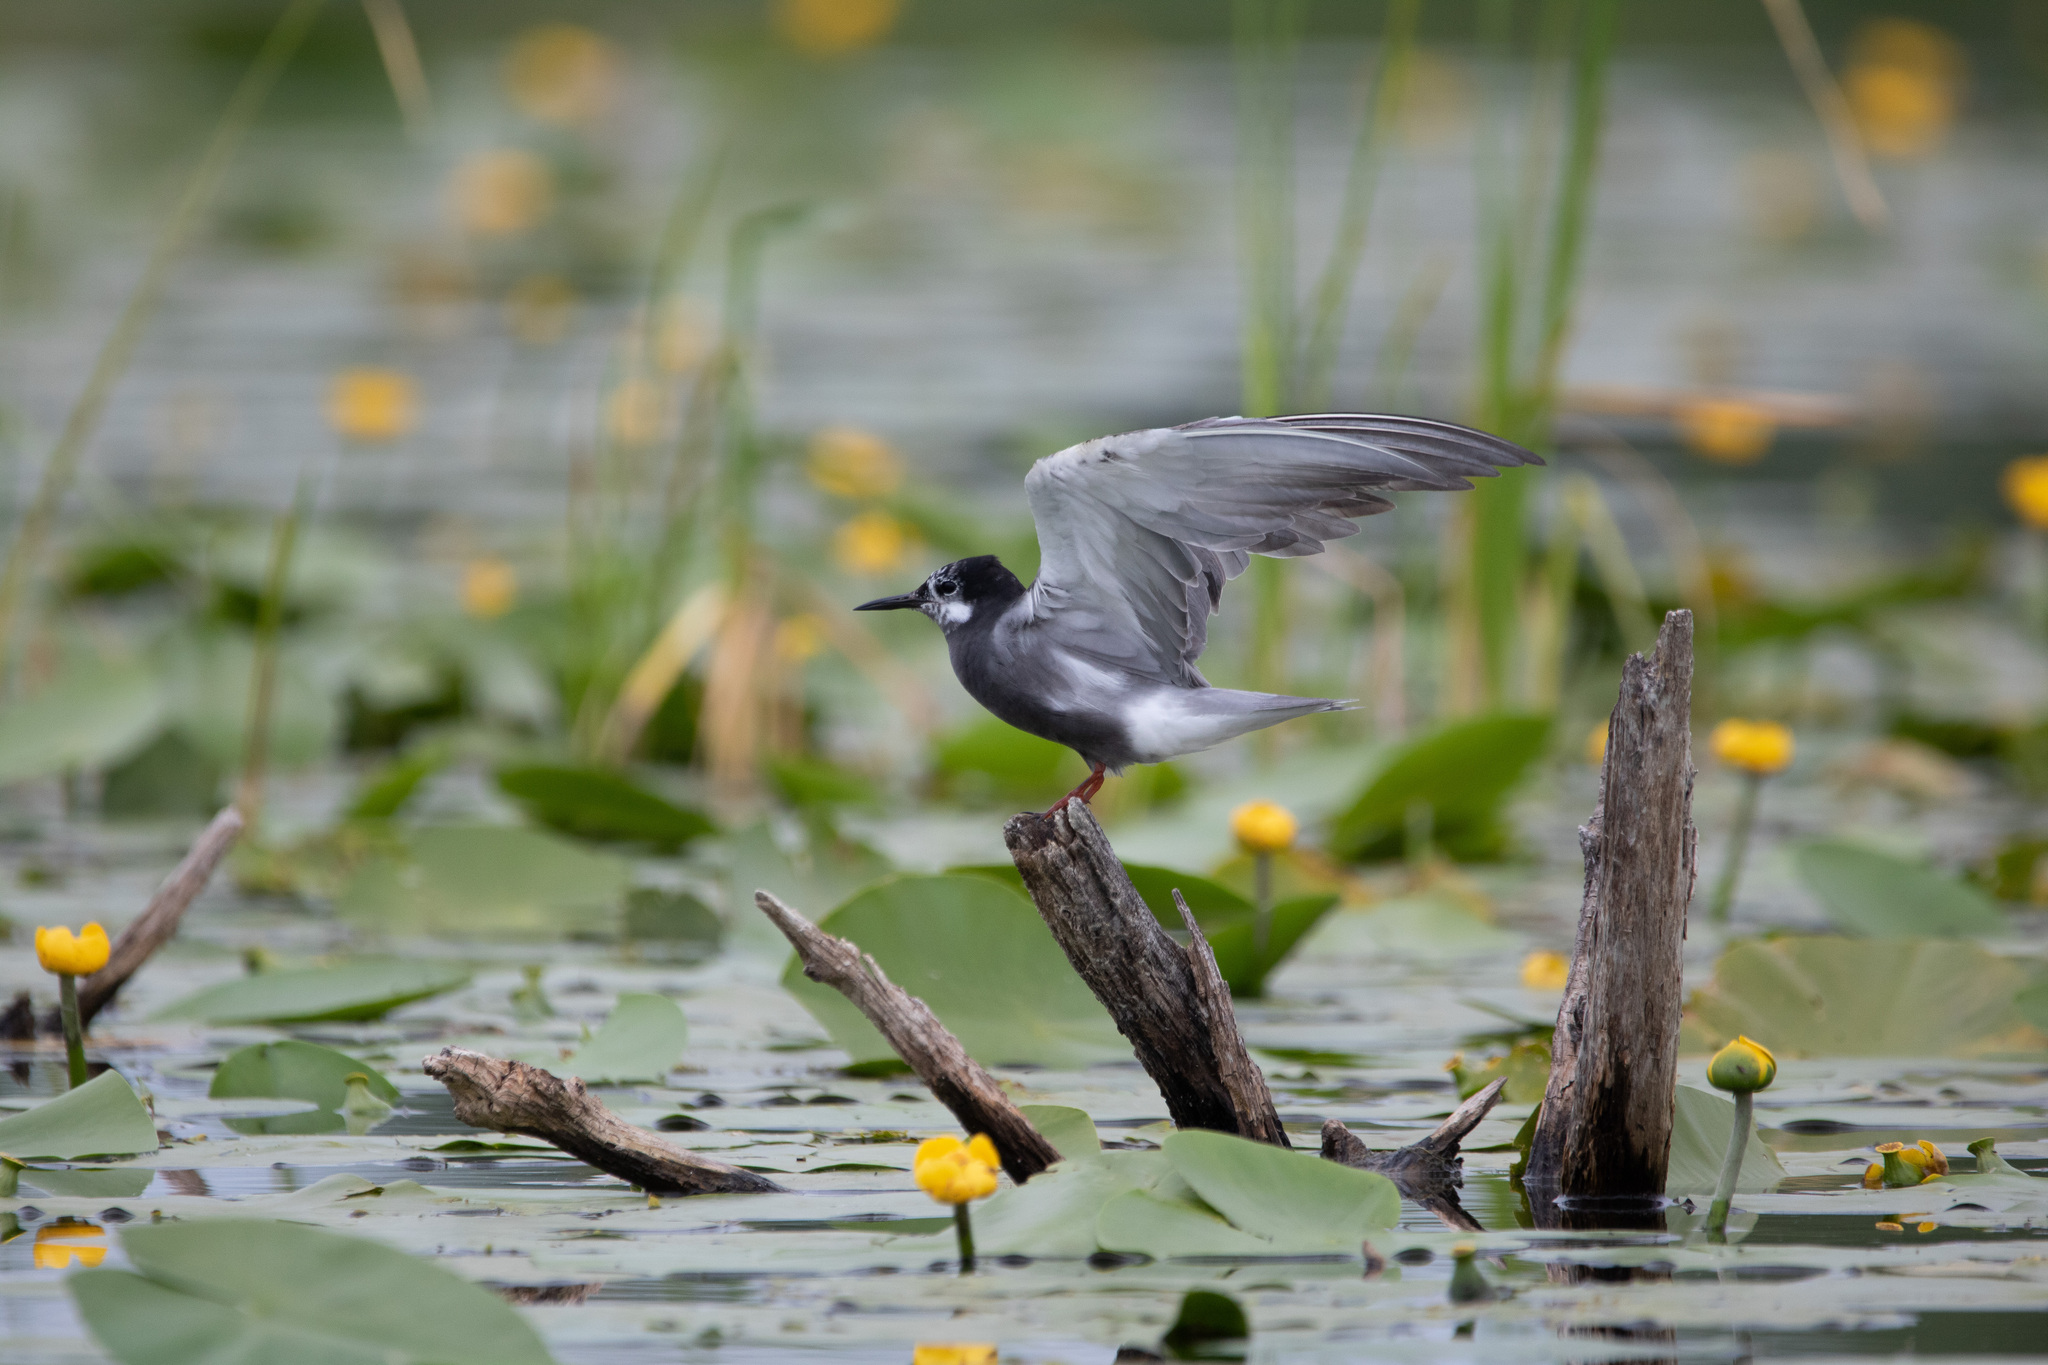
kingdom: Animalia
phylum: Chordata
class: Aves
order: Charadriiformes
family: Laridae
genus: Chlidonias
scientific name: Chlidonias niger
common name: Black tern
